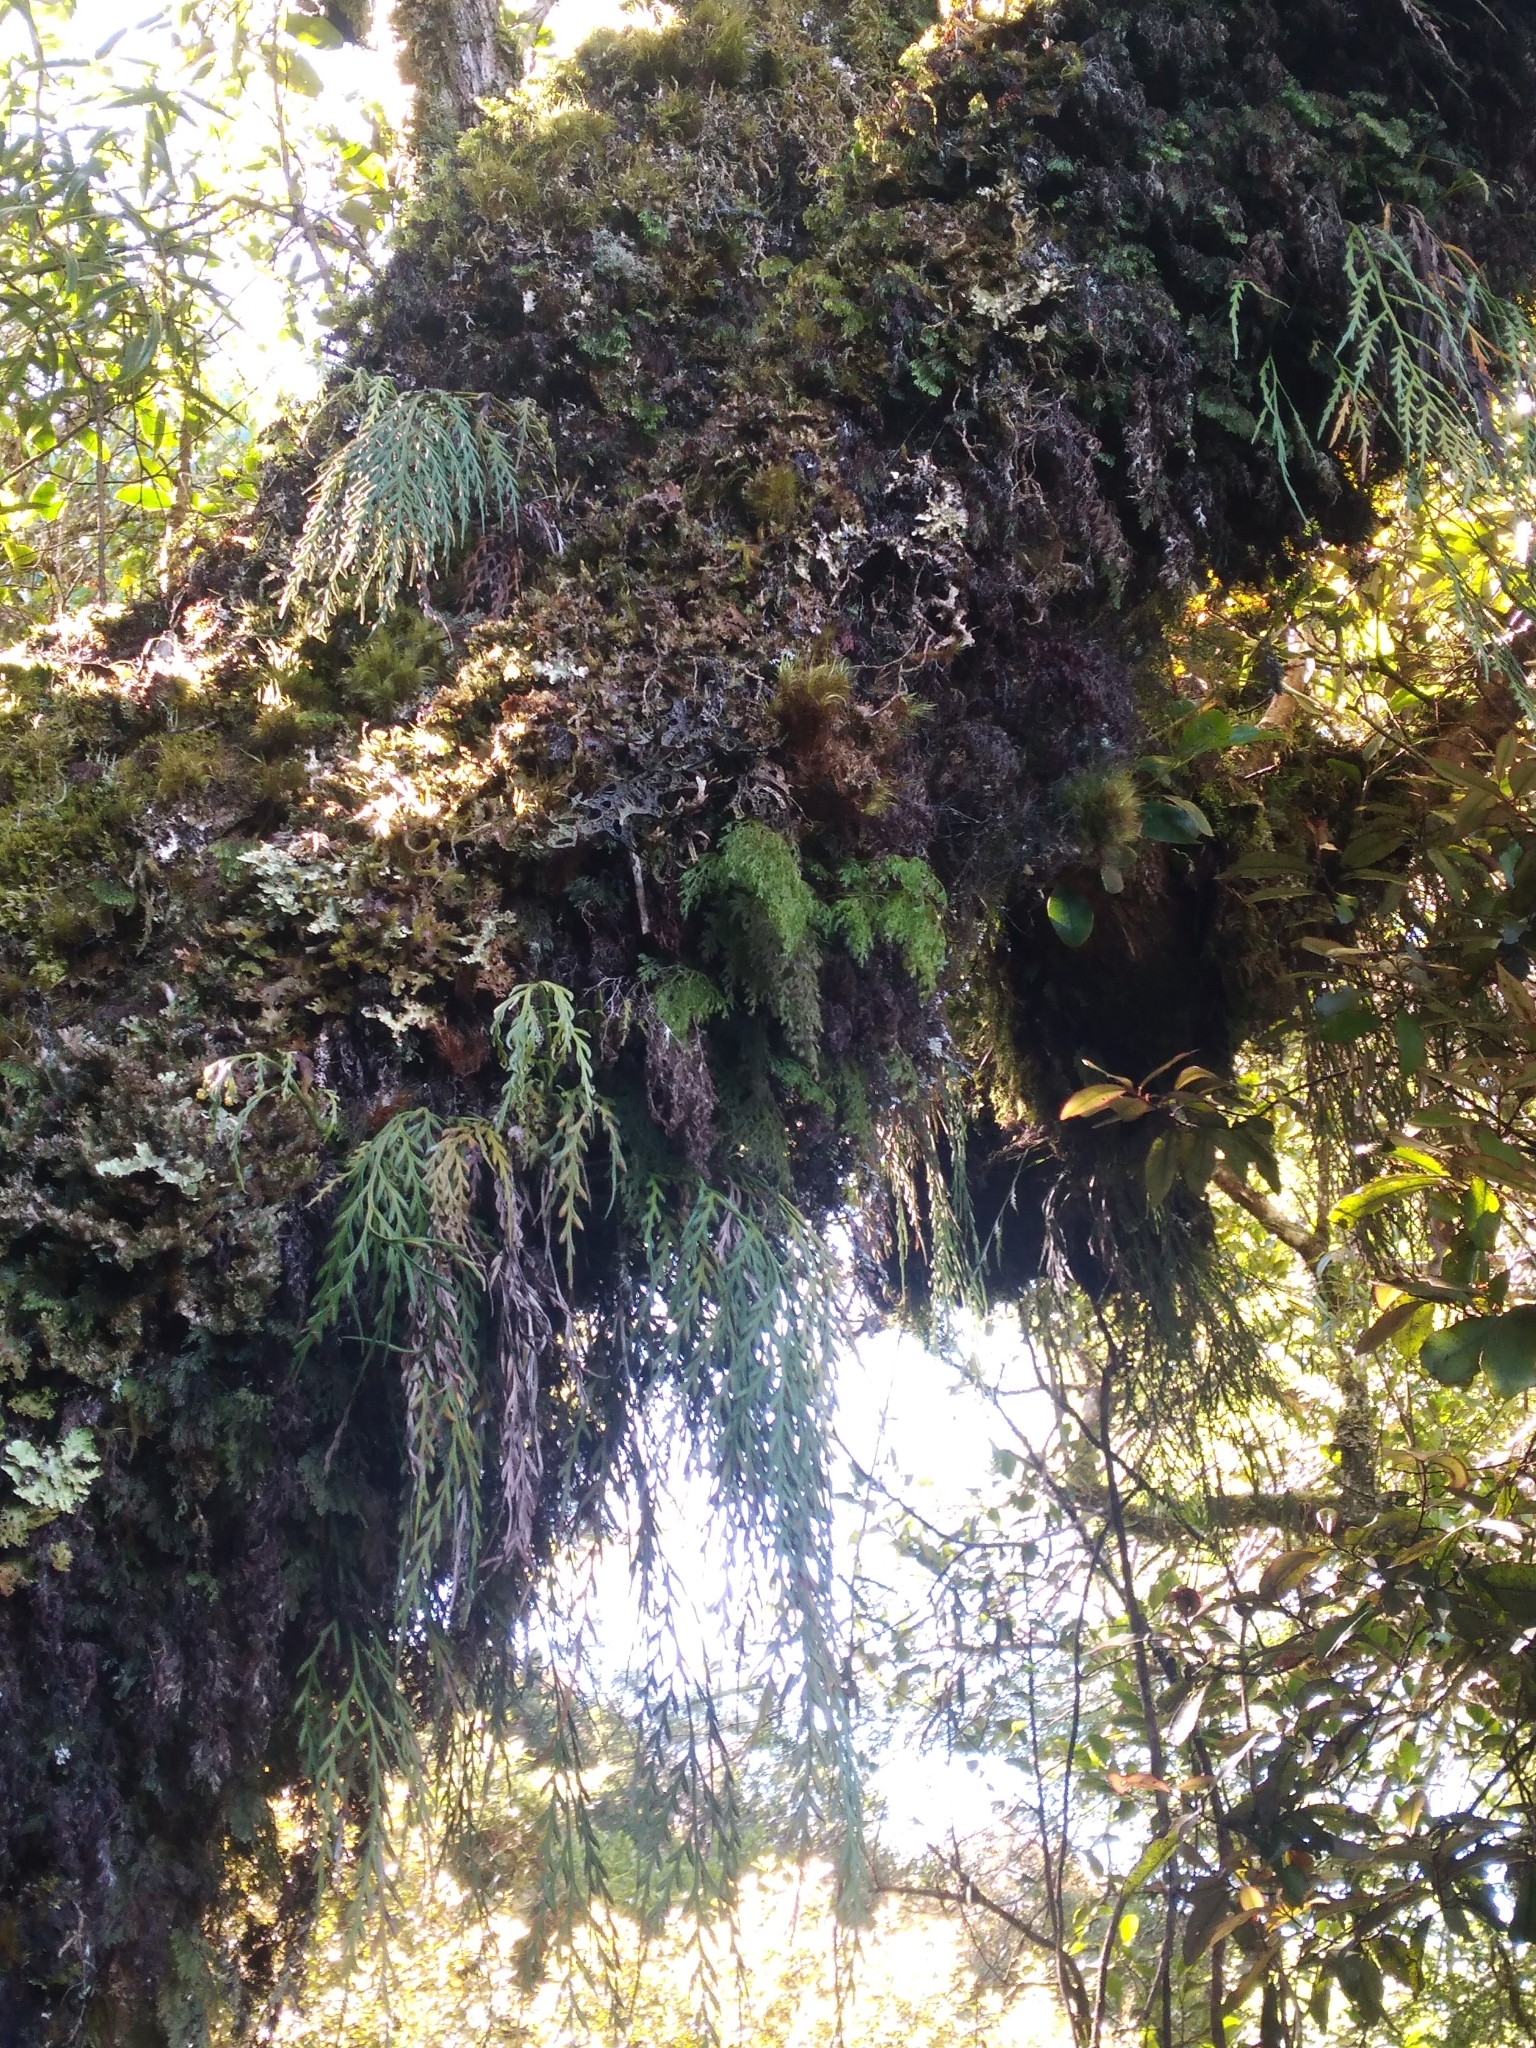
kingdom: Plantae
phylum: Tracheophyta
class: Polypodiopsida
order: Polypodiales
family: Aspleniaceae
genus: Asplenium
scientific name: Asplenium flaccidum
